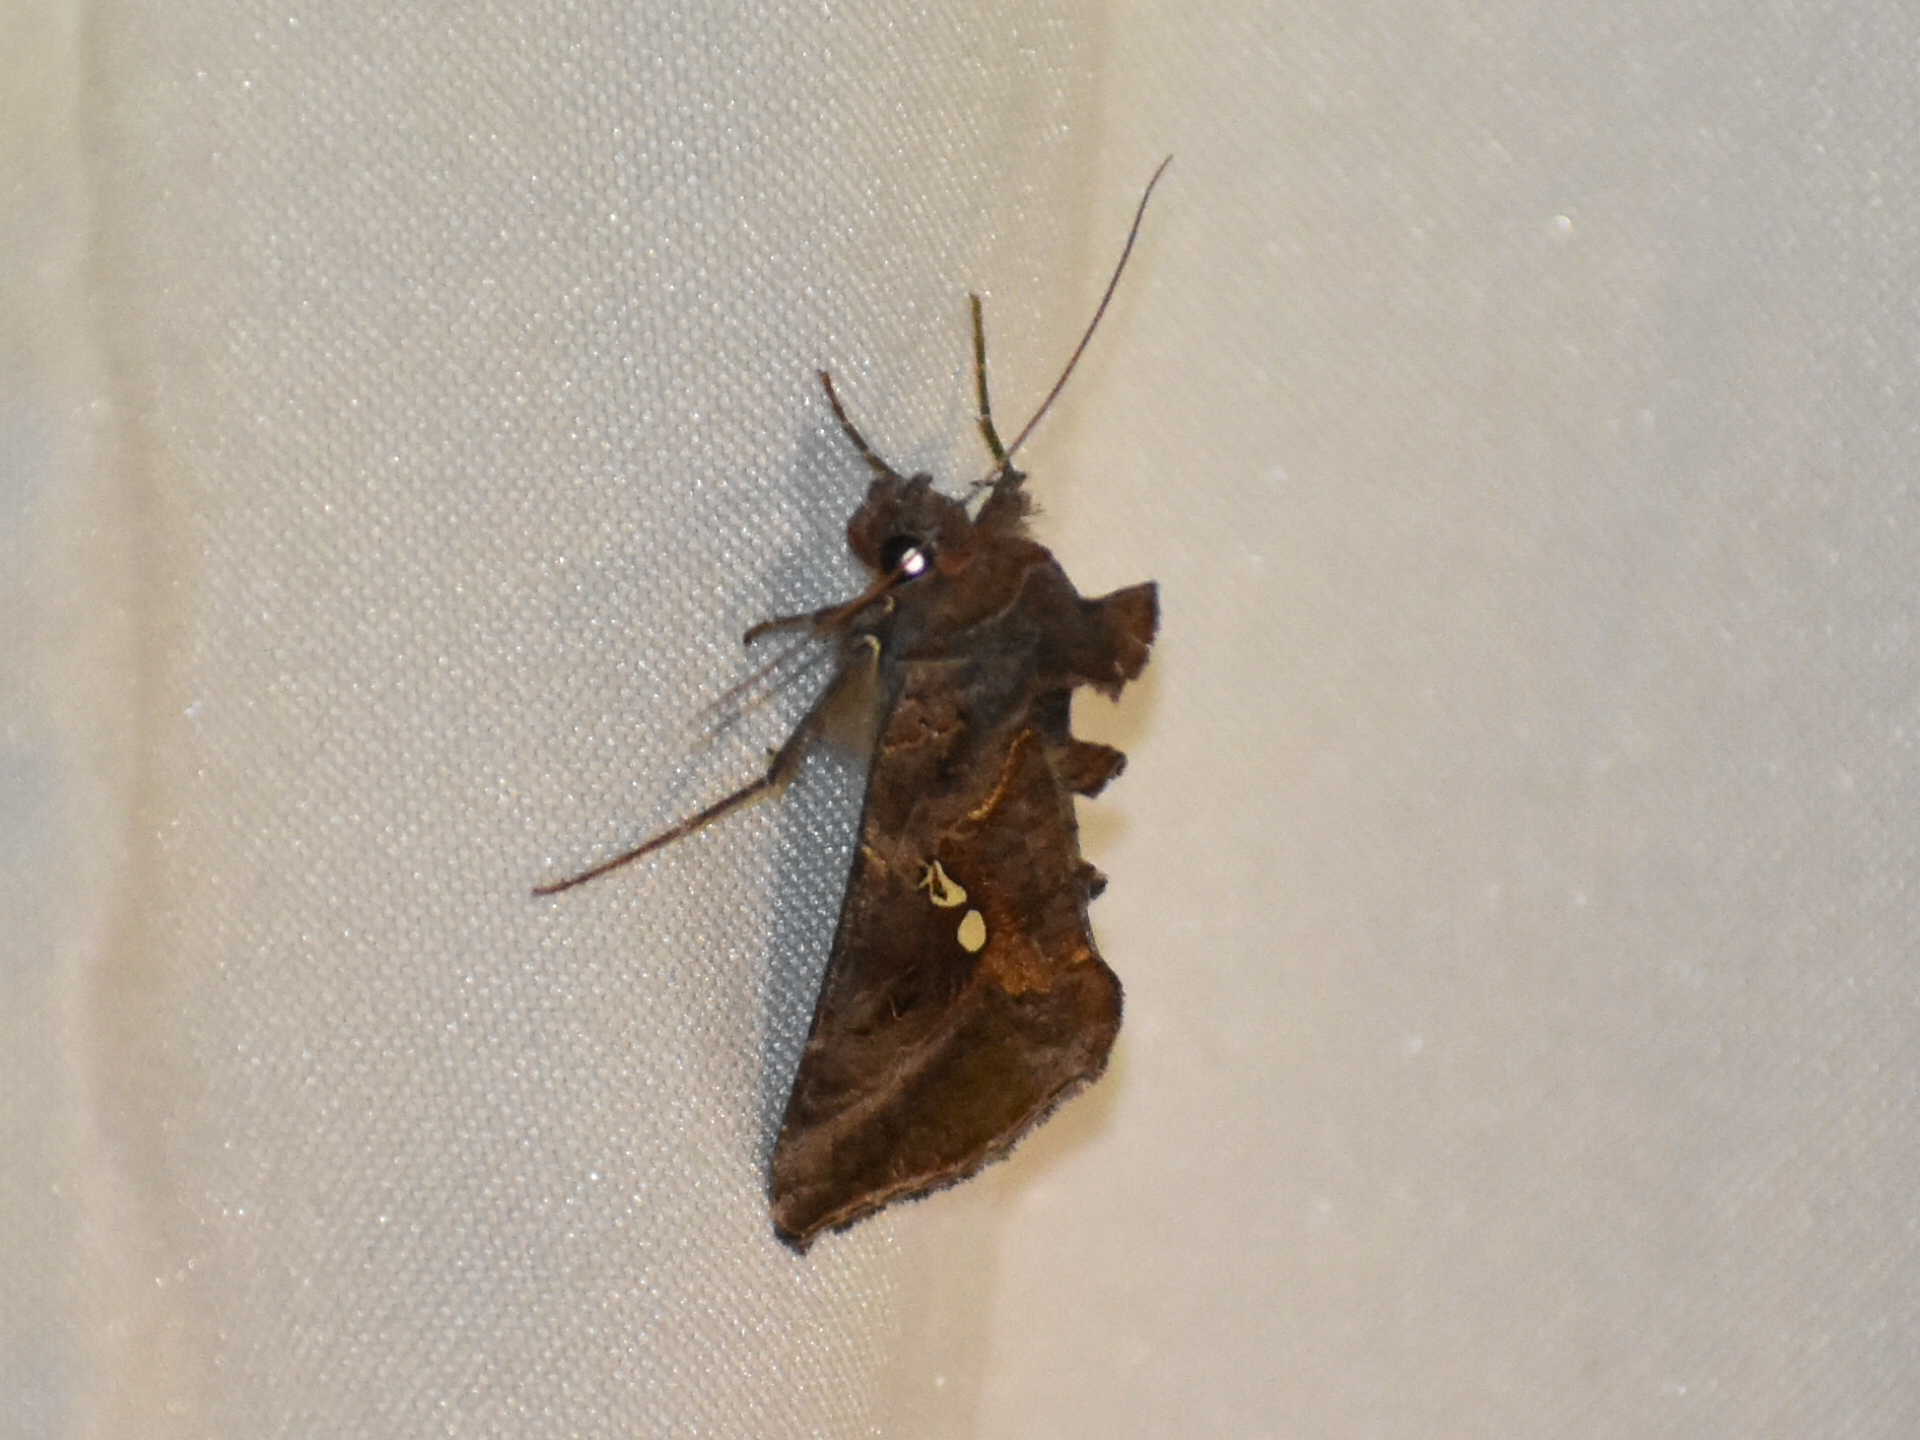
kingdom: Animalia
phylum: Arthropoda
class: Insecta
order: Lepidoptera
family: Noctuidae
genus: Autographa
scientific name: Autographa precationis
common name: Common looper moth
